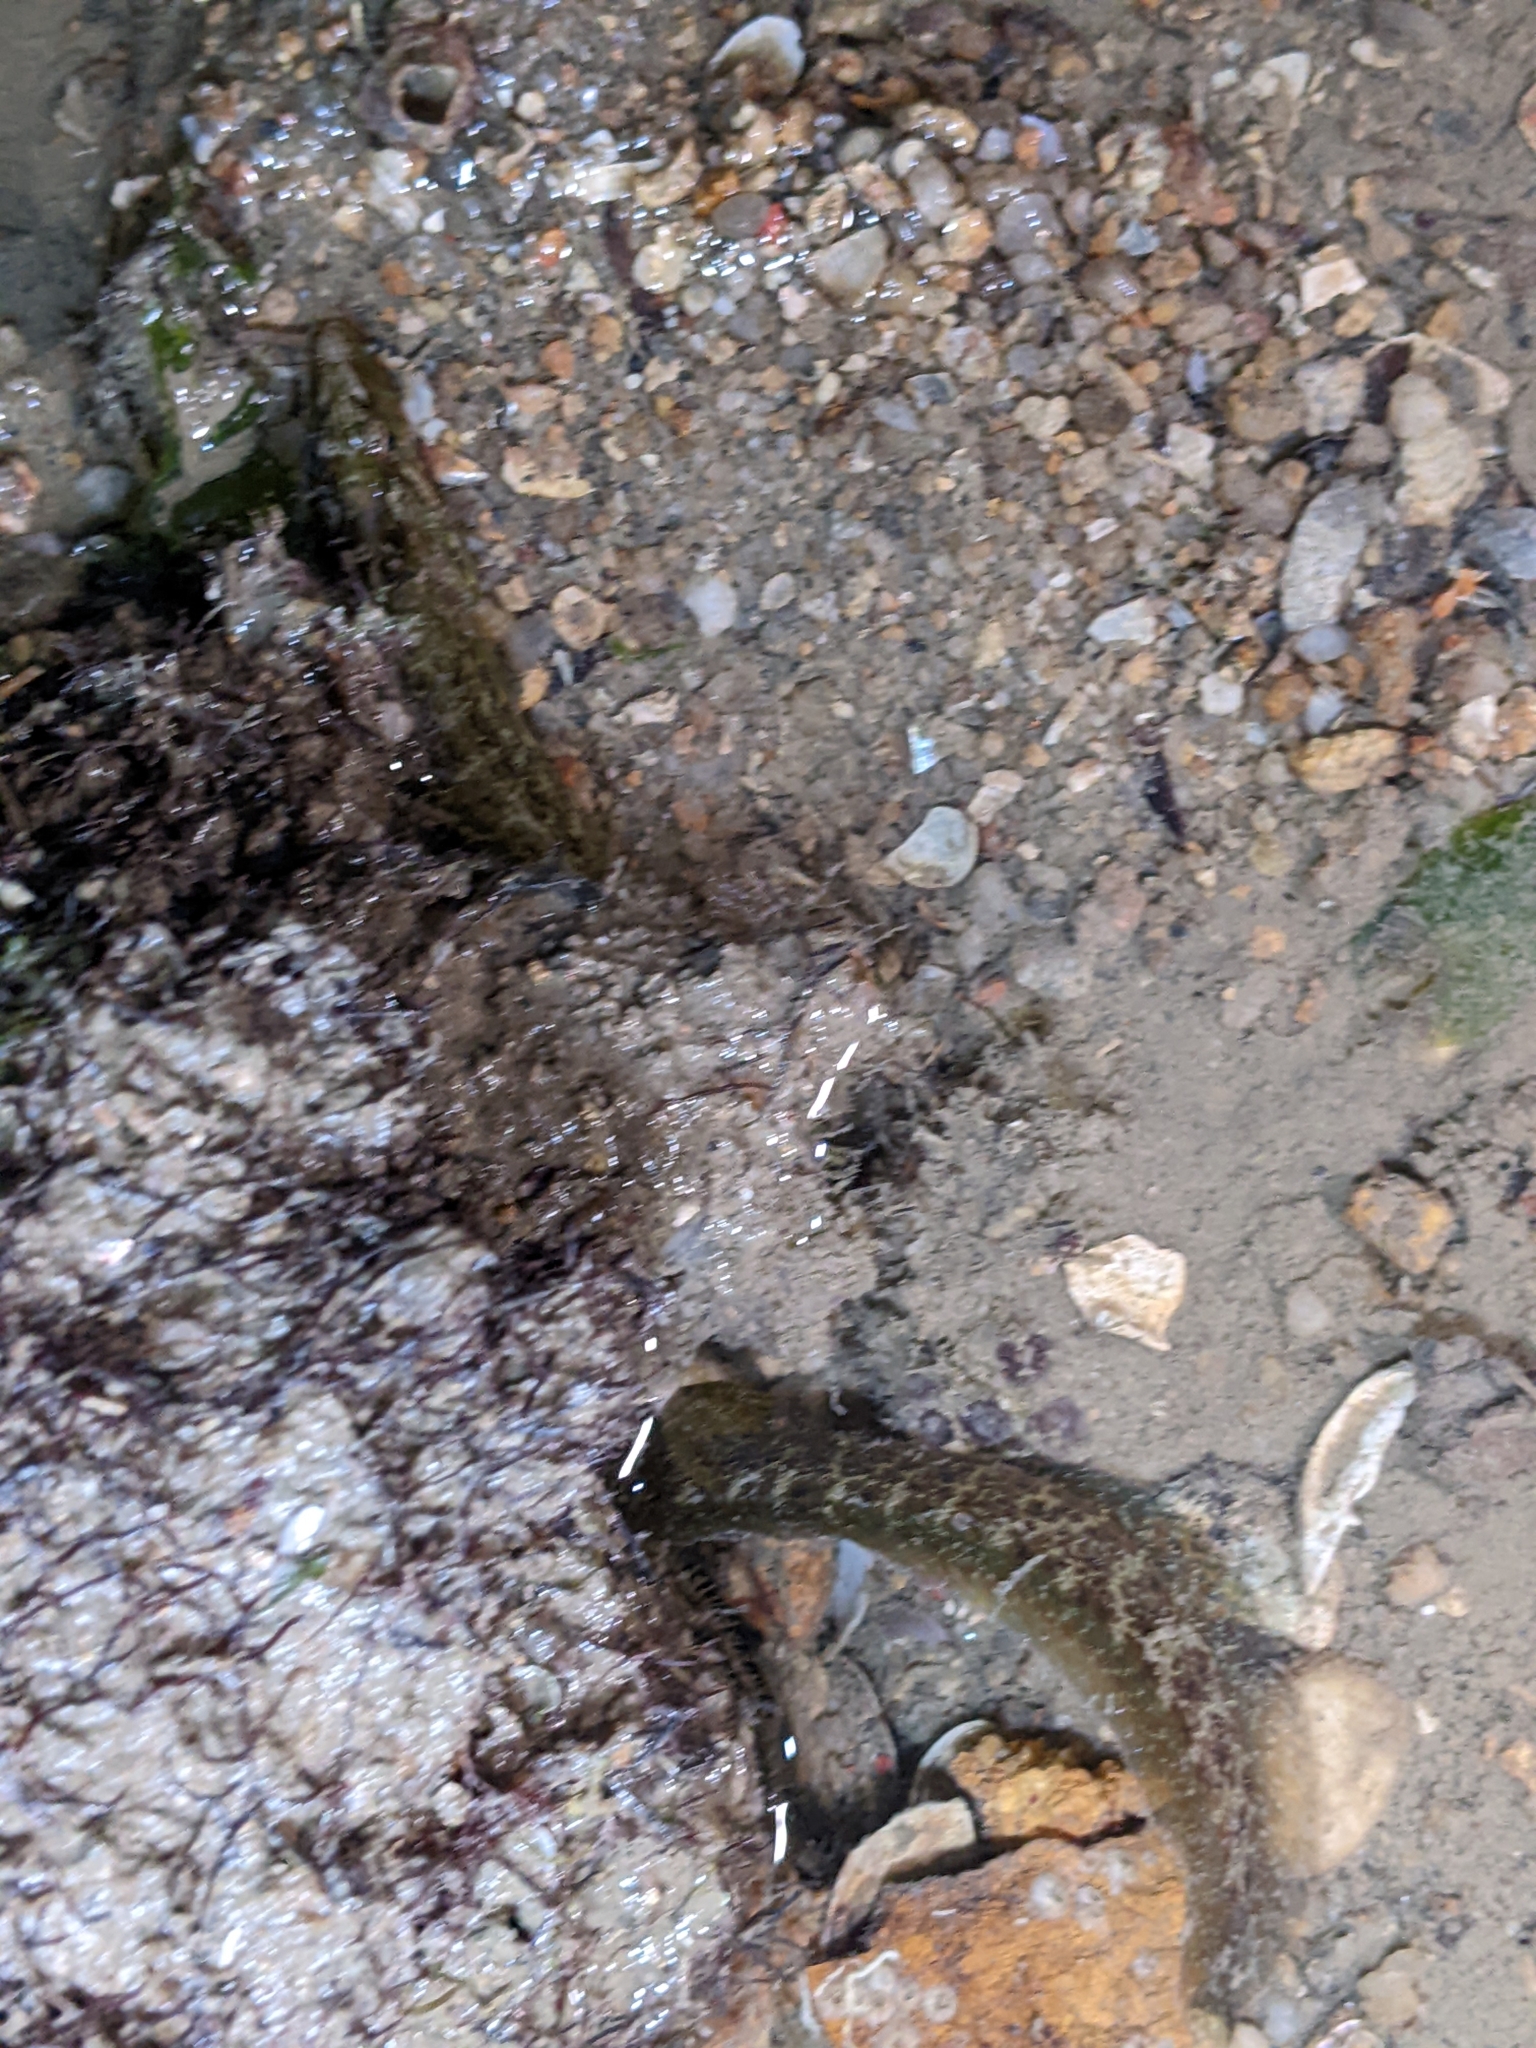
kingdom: Animalia
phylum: Chordata
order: Perciformes
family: Pseudochromidae
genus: Congrogadus
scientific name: Congrogadus subducens
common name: Carpet eel-blenny
